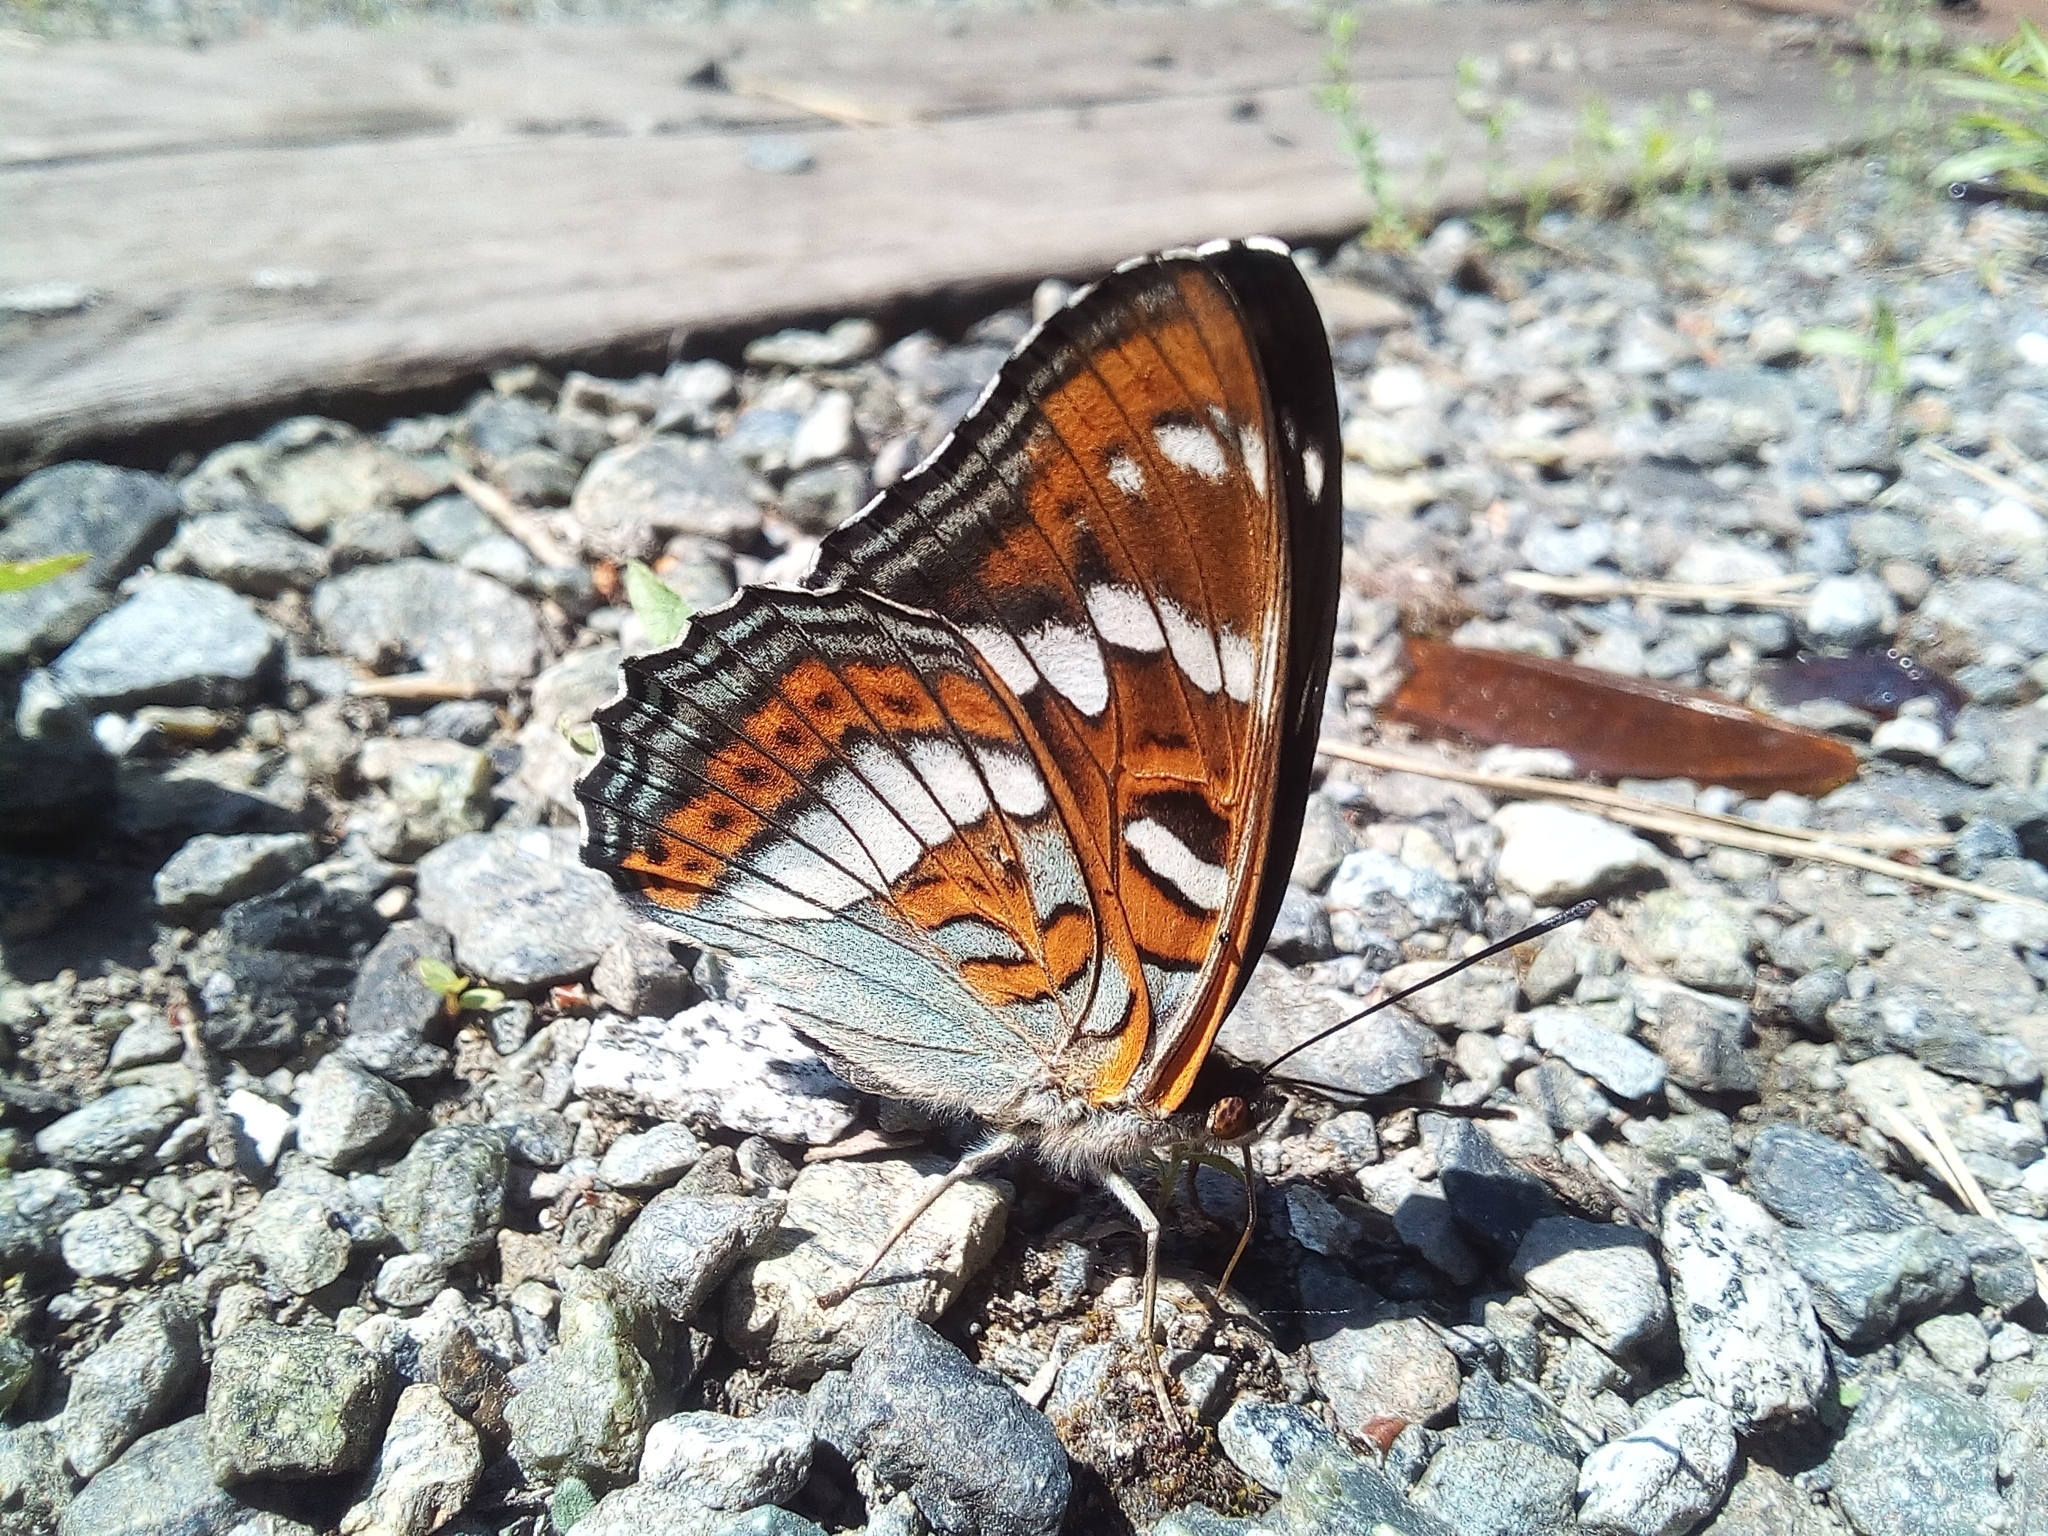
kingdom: Animalia
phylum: Arthropoda
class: Insecta
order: Lepidoptera
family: Nymphalidae
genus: Limenitis
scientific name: Limenitis populi
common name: Poplar admiral
